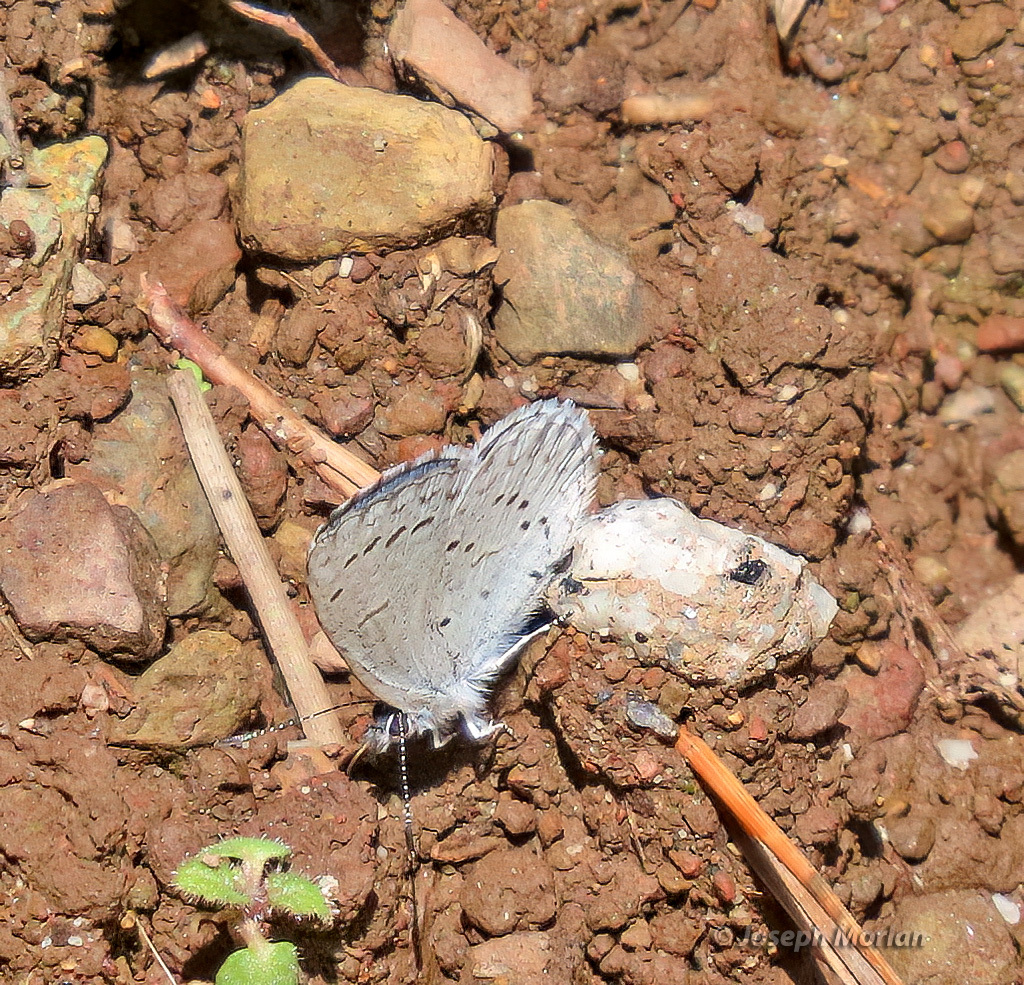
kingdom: Animalia
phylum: Arthropoda
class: Insecta
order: Lepidoptera
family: Lycaenidae
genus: Celastrina
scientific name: Celastrina ladon
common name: Spring azure
